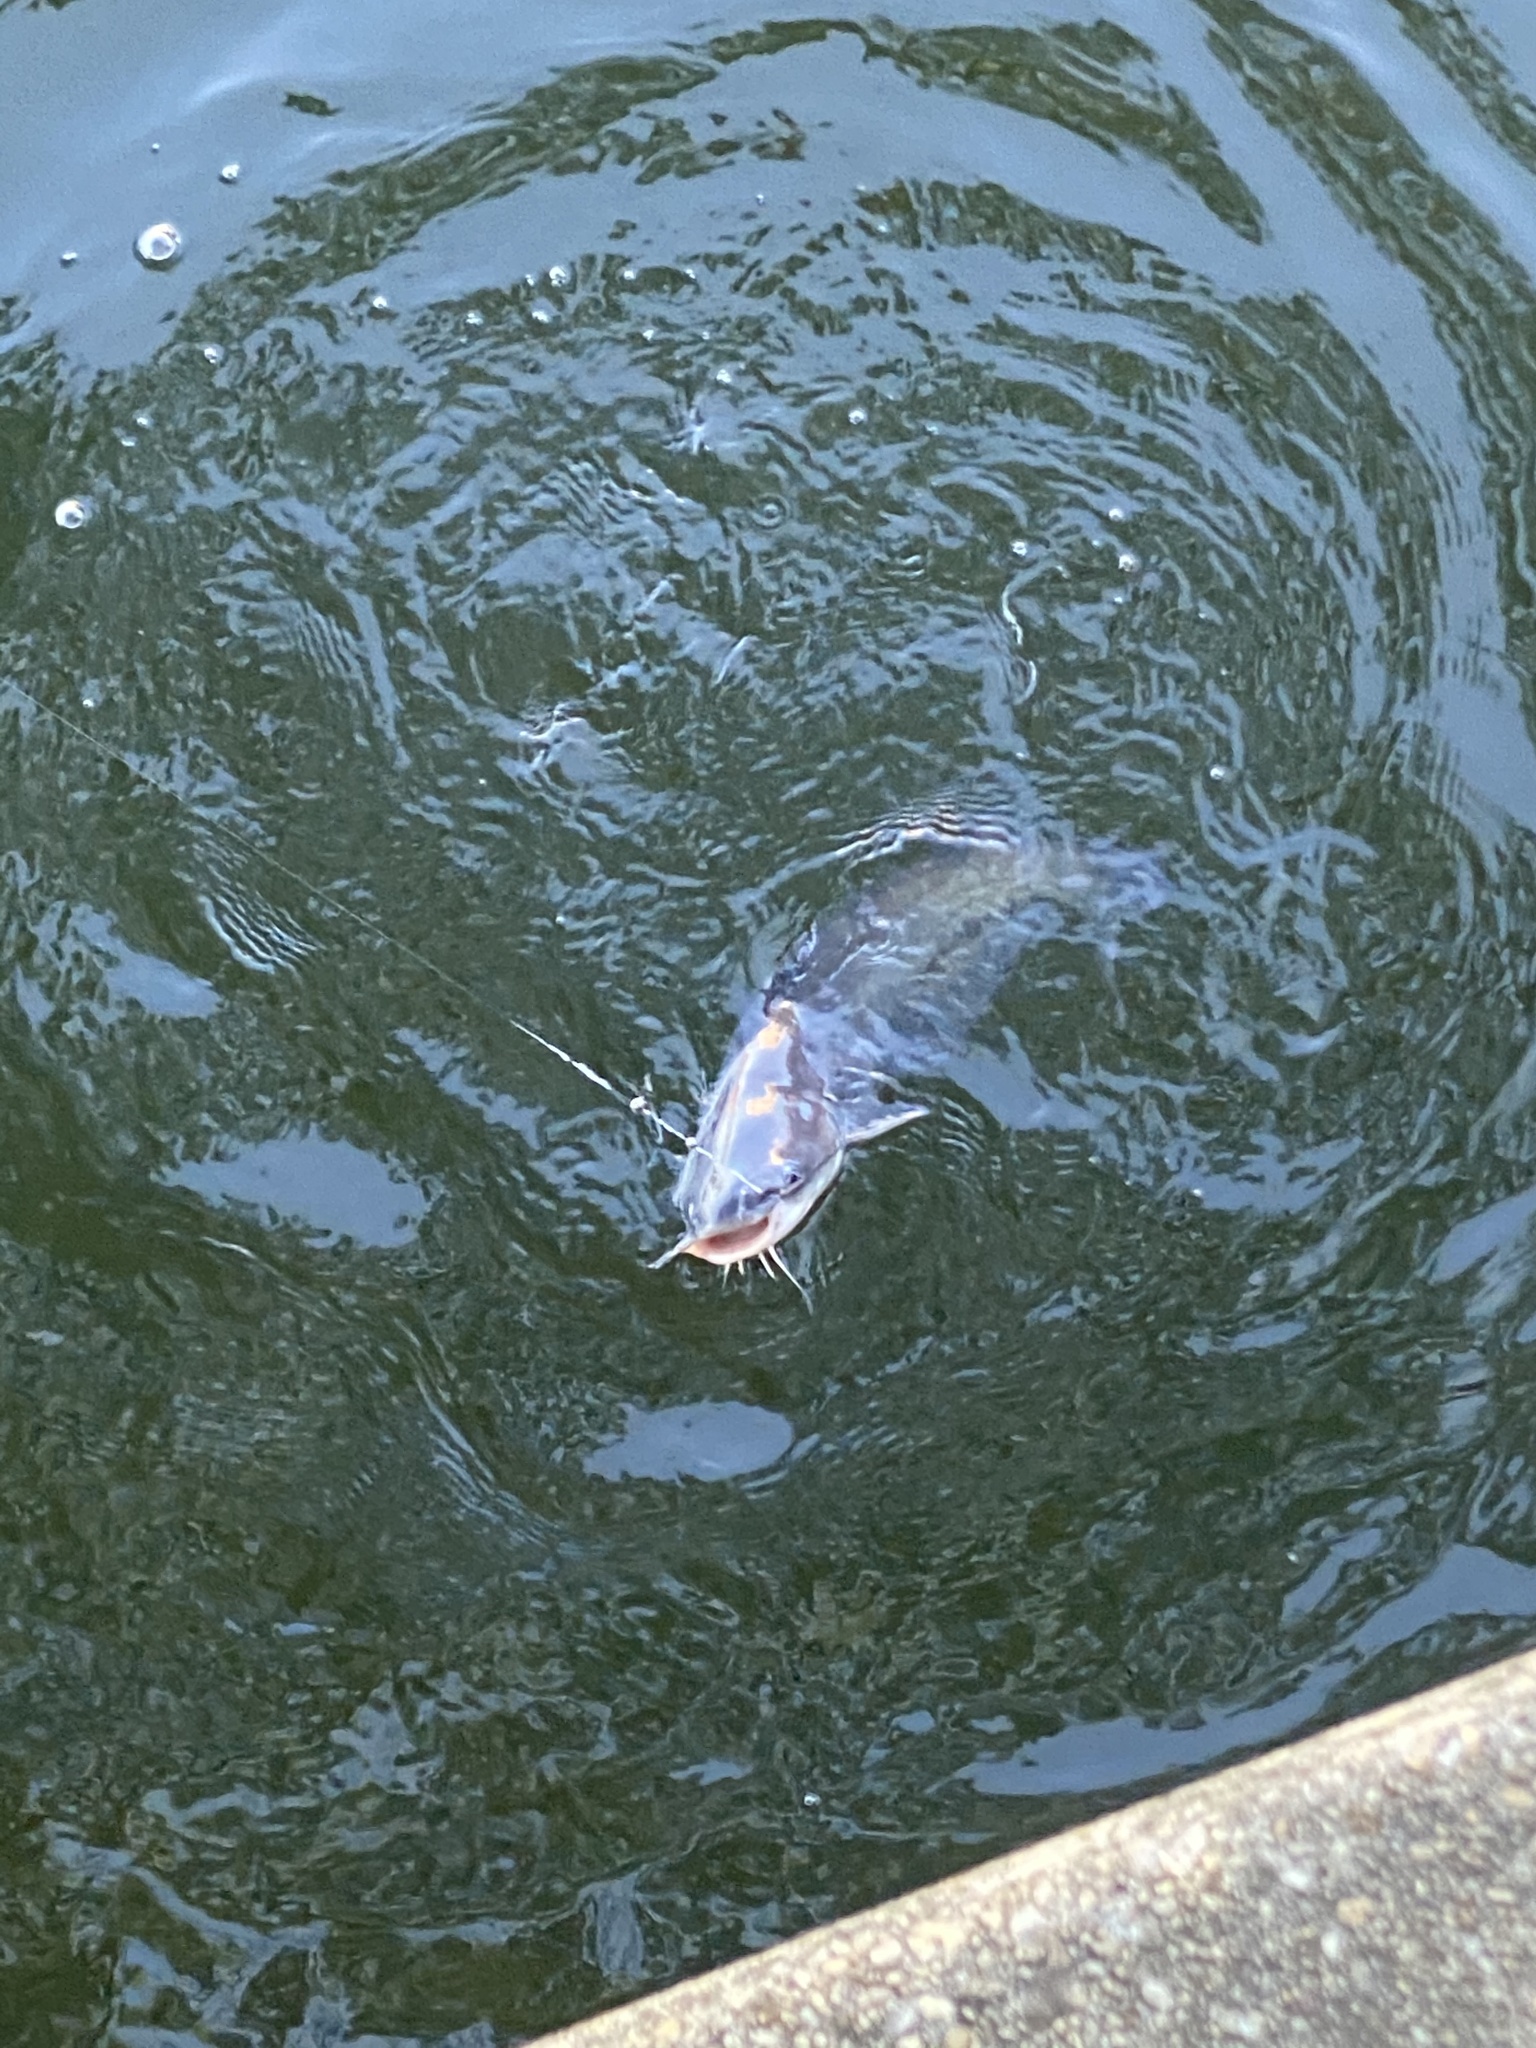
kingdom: Animalia
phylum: Chordata
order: Siluriformes
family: Ictaluridae
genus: Ictalurus
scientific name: Ictalurus furcatus
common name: Blue catfish
